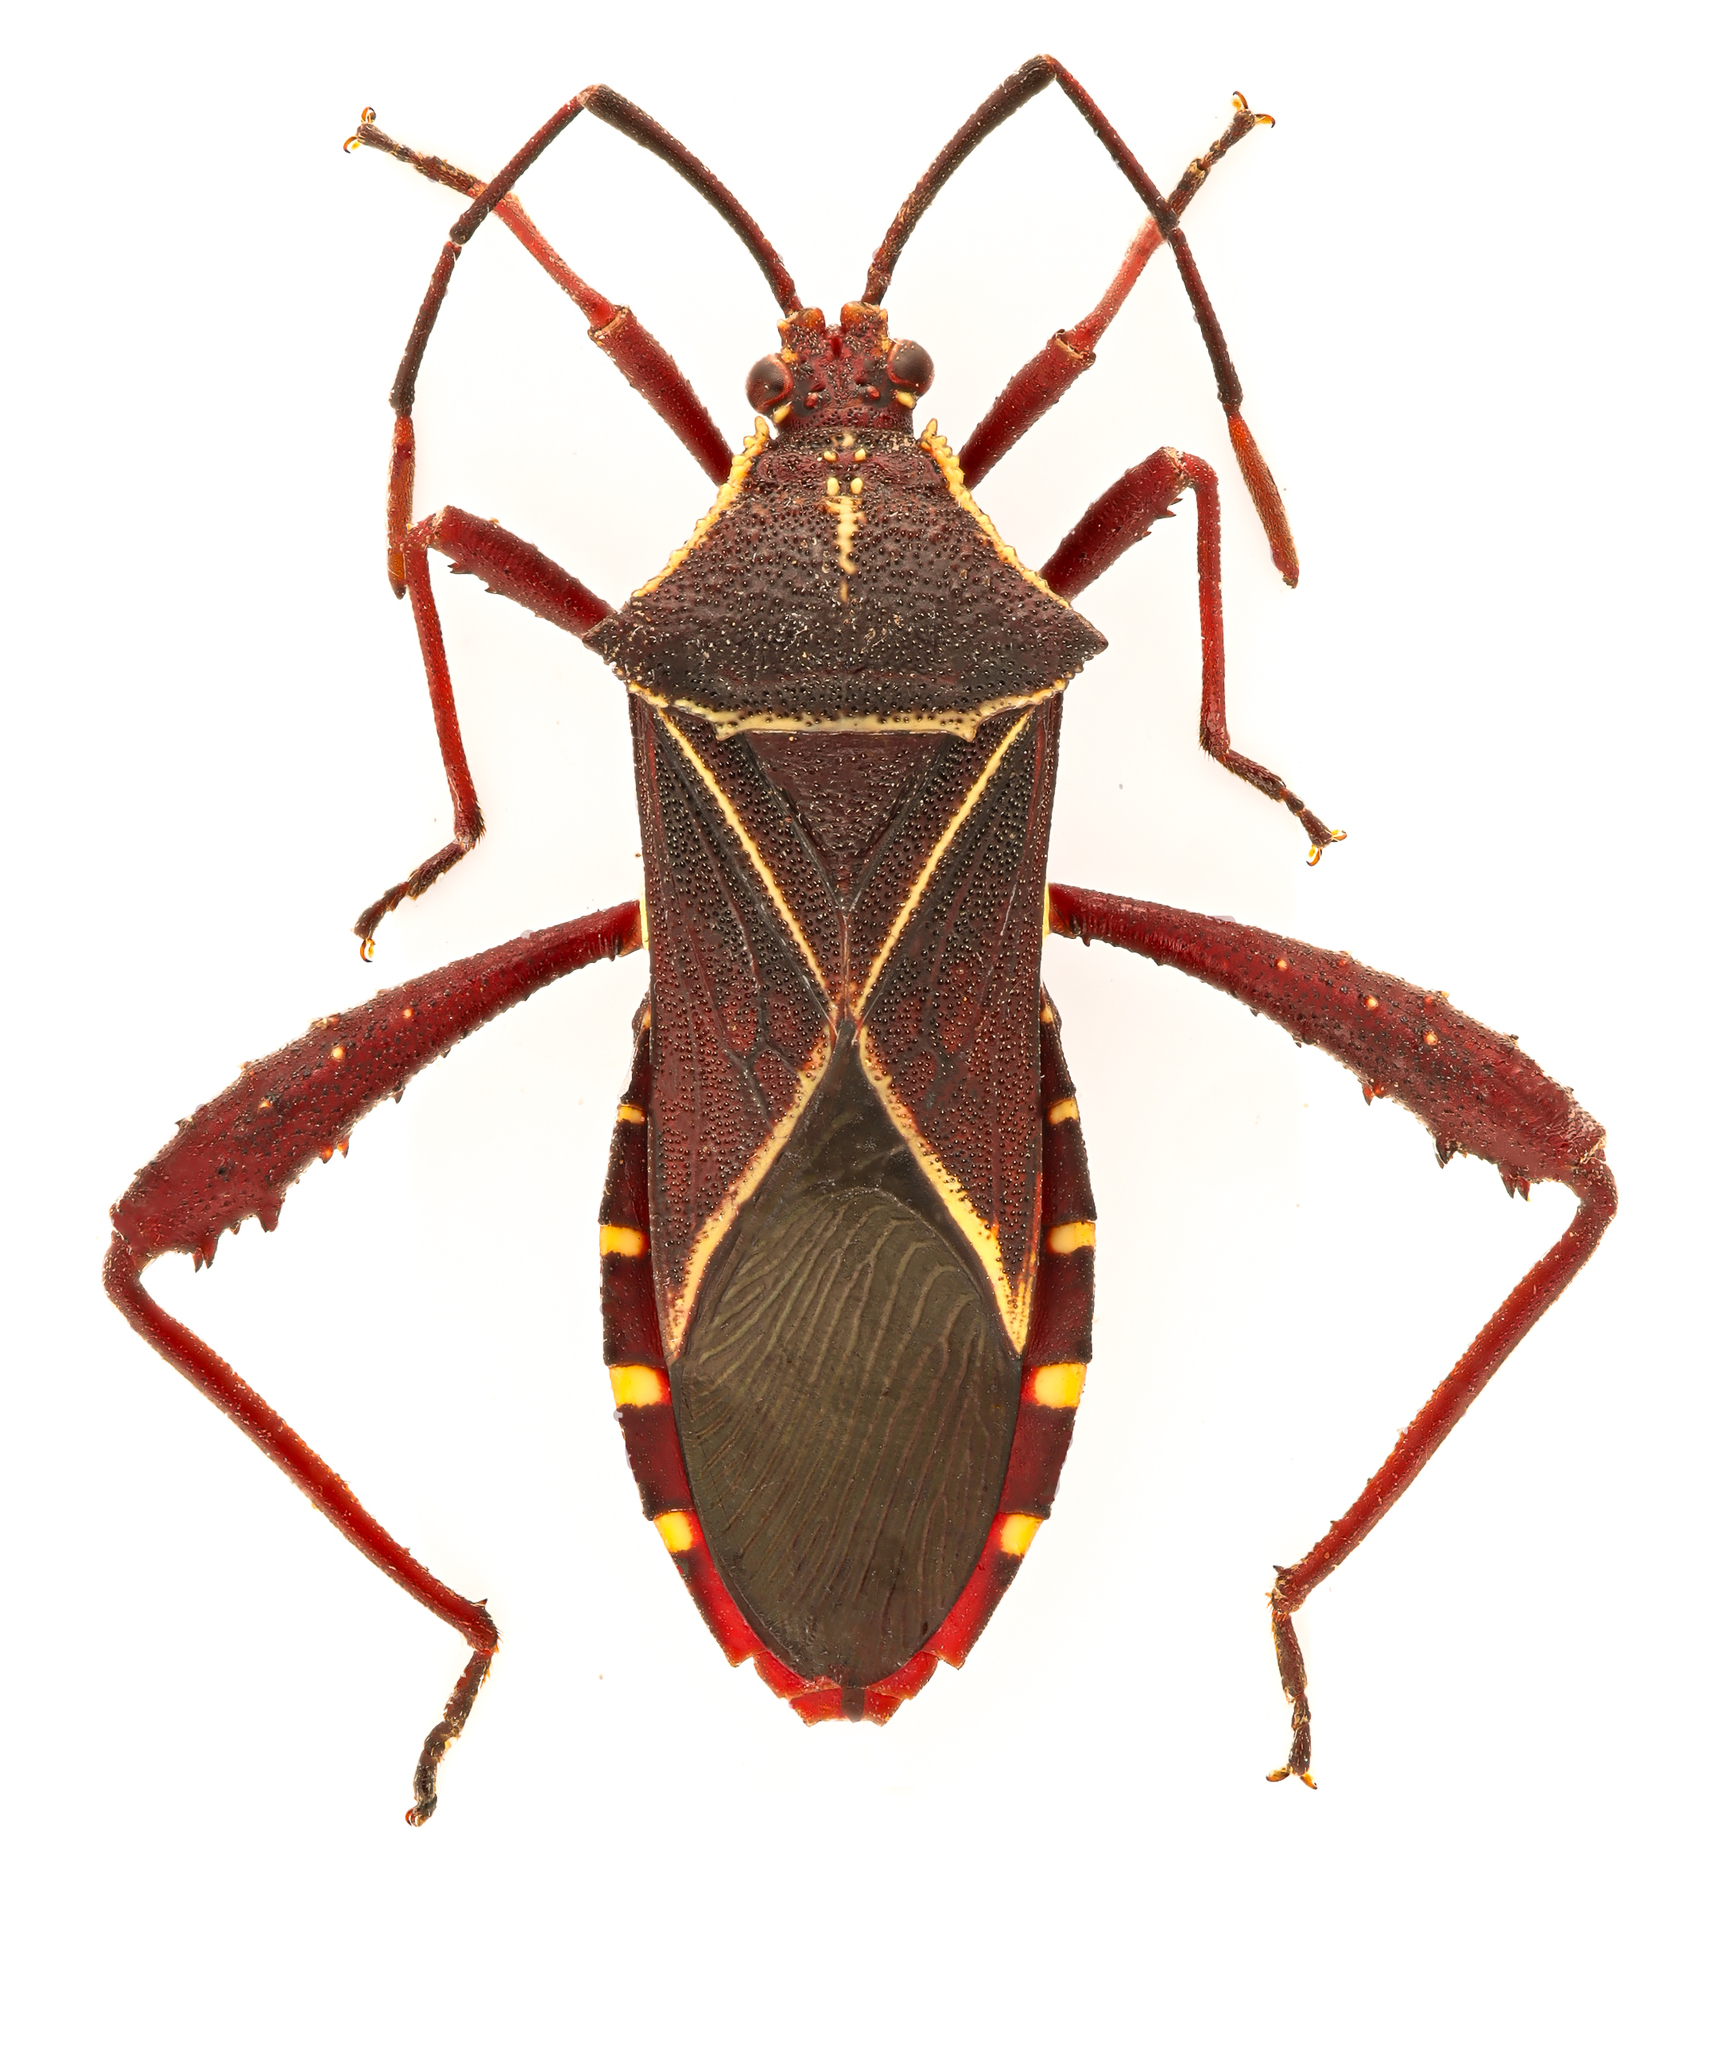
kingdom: Animalia
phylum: Arthropoda
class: Insecta
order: Hemiptera
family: Coreidae
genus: Acanthocerus
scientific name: Acanthocerus crucifer
